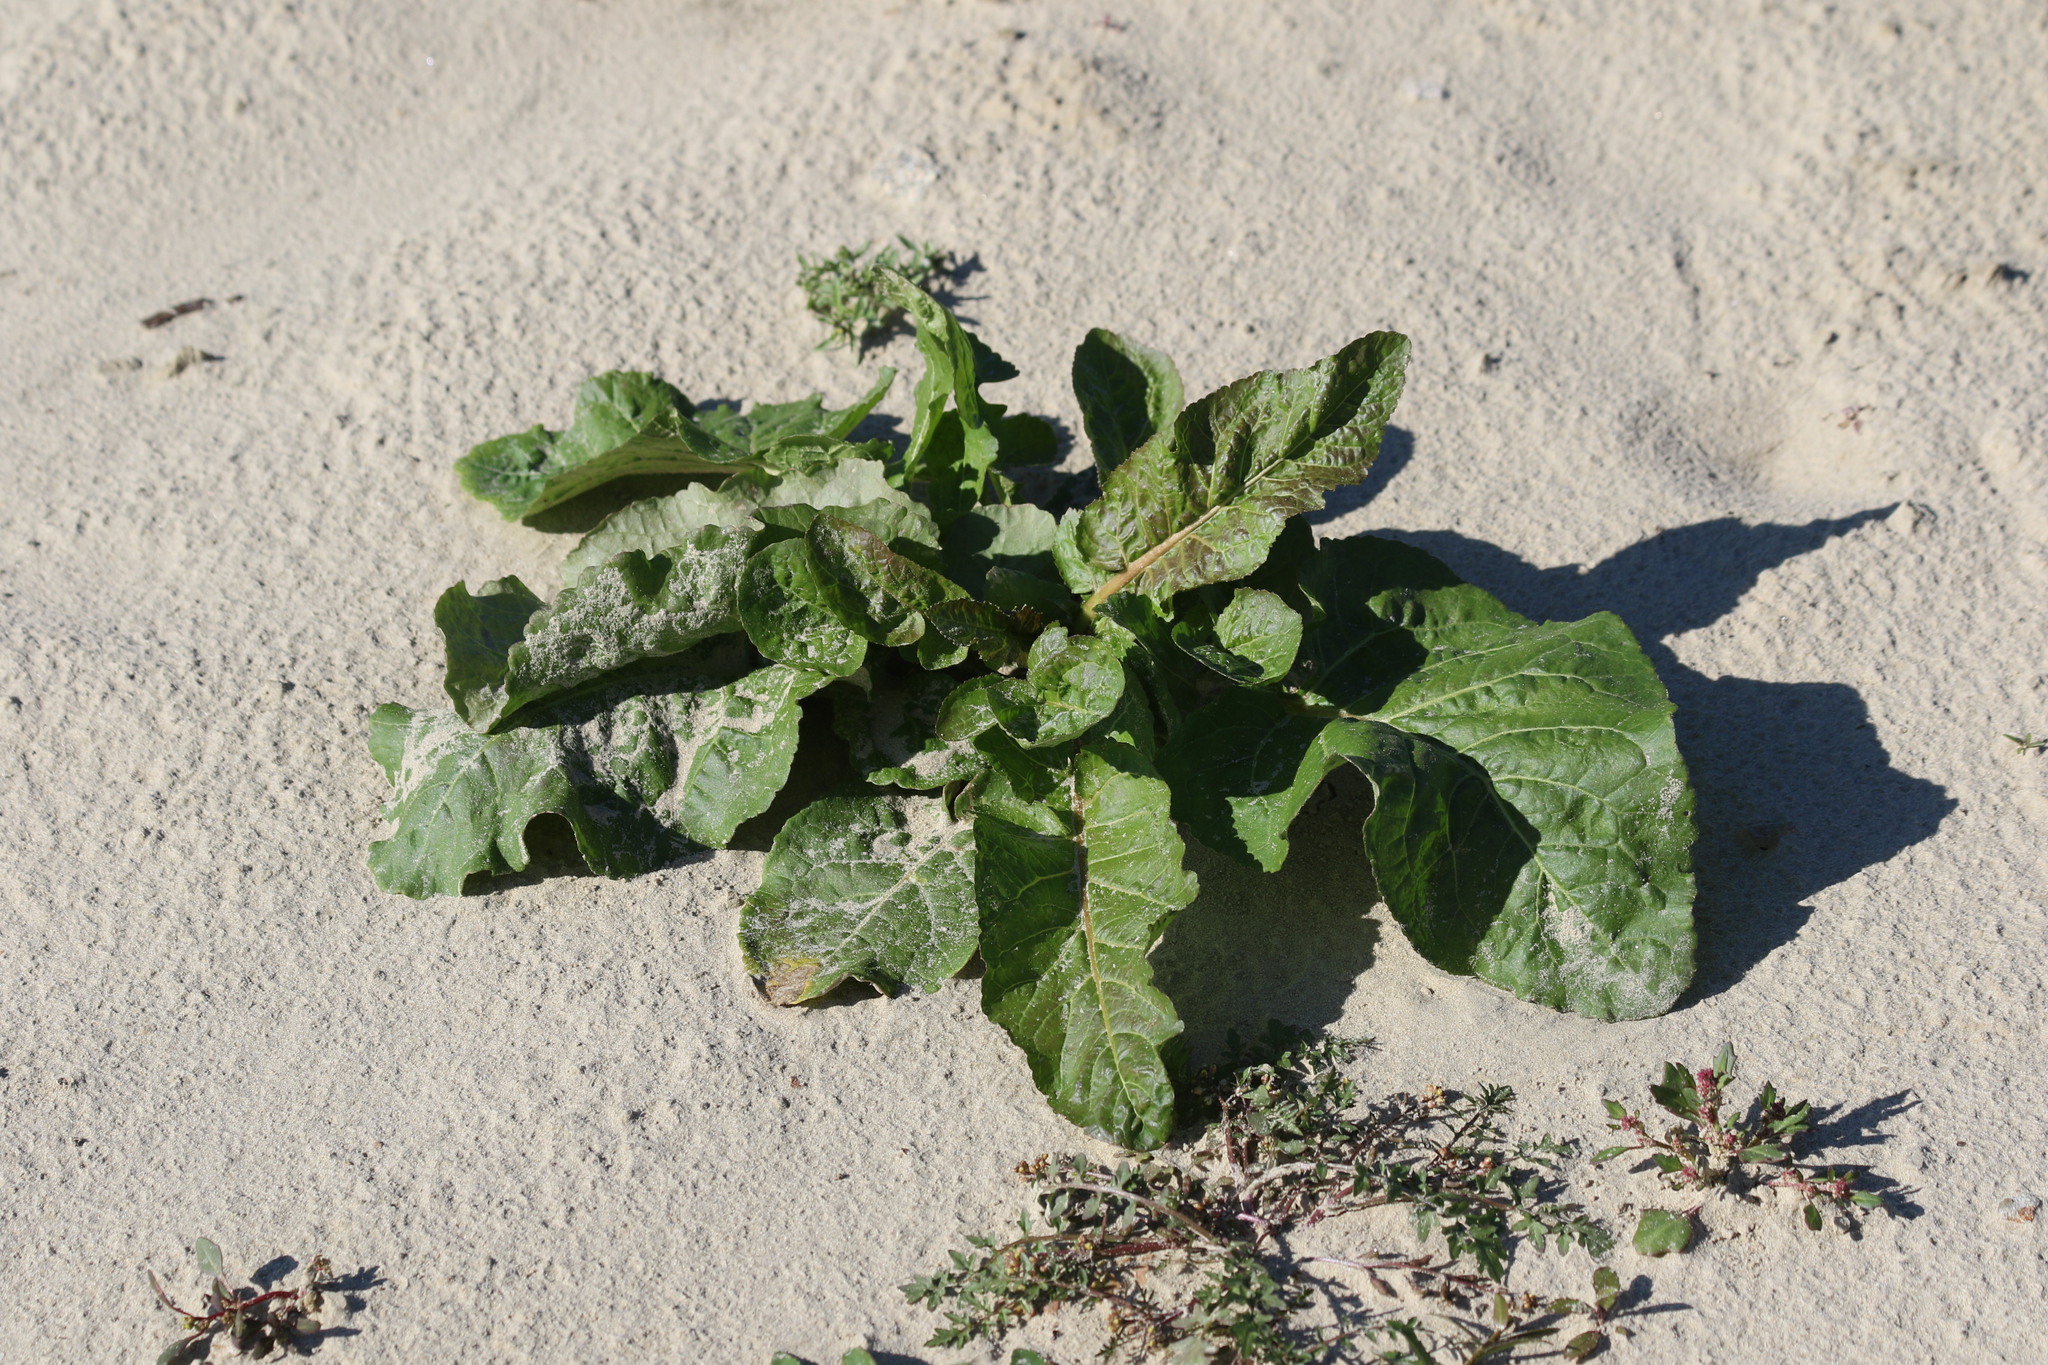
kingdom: Plantae
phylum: Tracheophyta
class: Magnoliopsida
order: Brassicales
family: Brassicaceae
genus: Rorippa
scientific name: Rorippa amphibia
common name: Great yellow-cress
